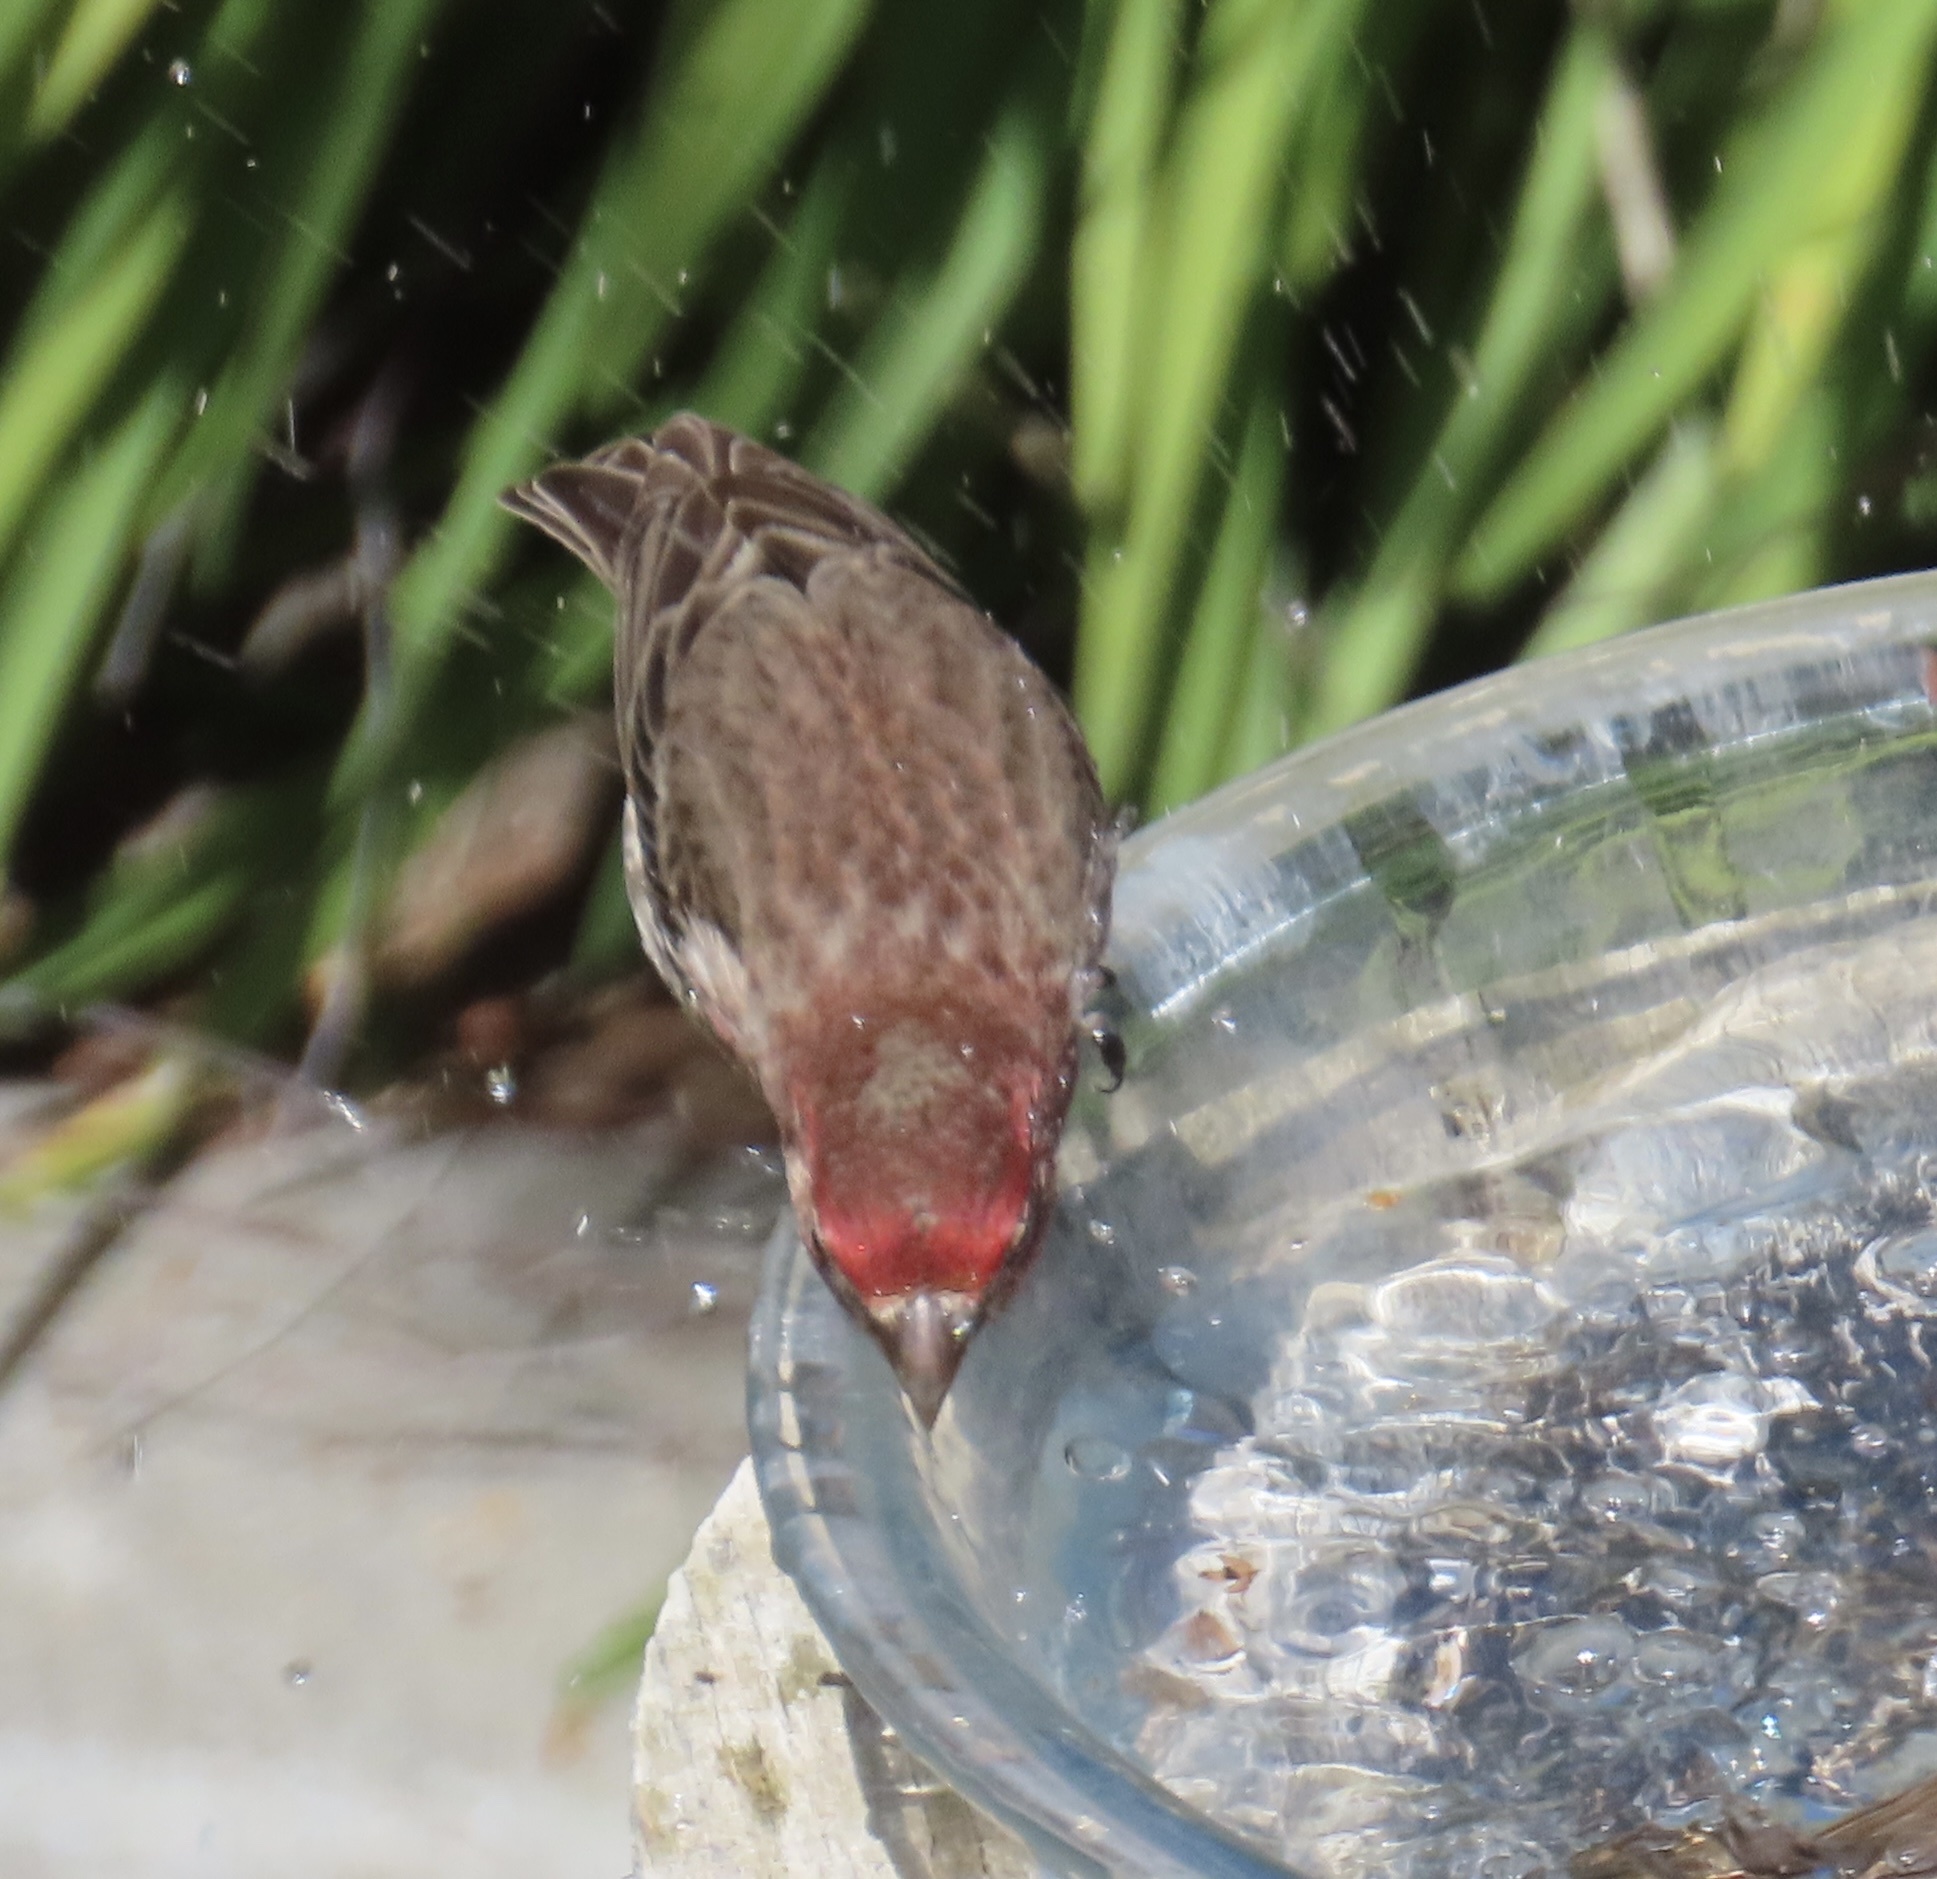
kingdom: Animalia
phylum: Chordata
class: Aves
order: Passeriformes
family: Fringillidae
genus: Haemorhous
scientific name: Haemorhous mexicanus
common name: House finch
